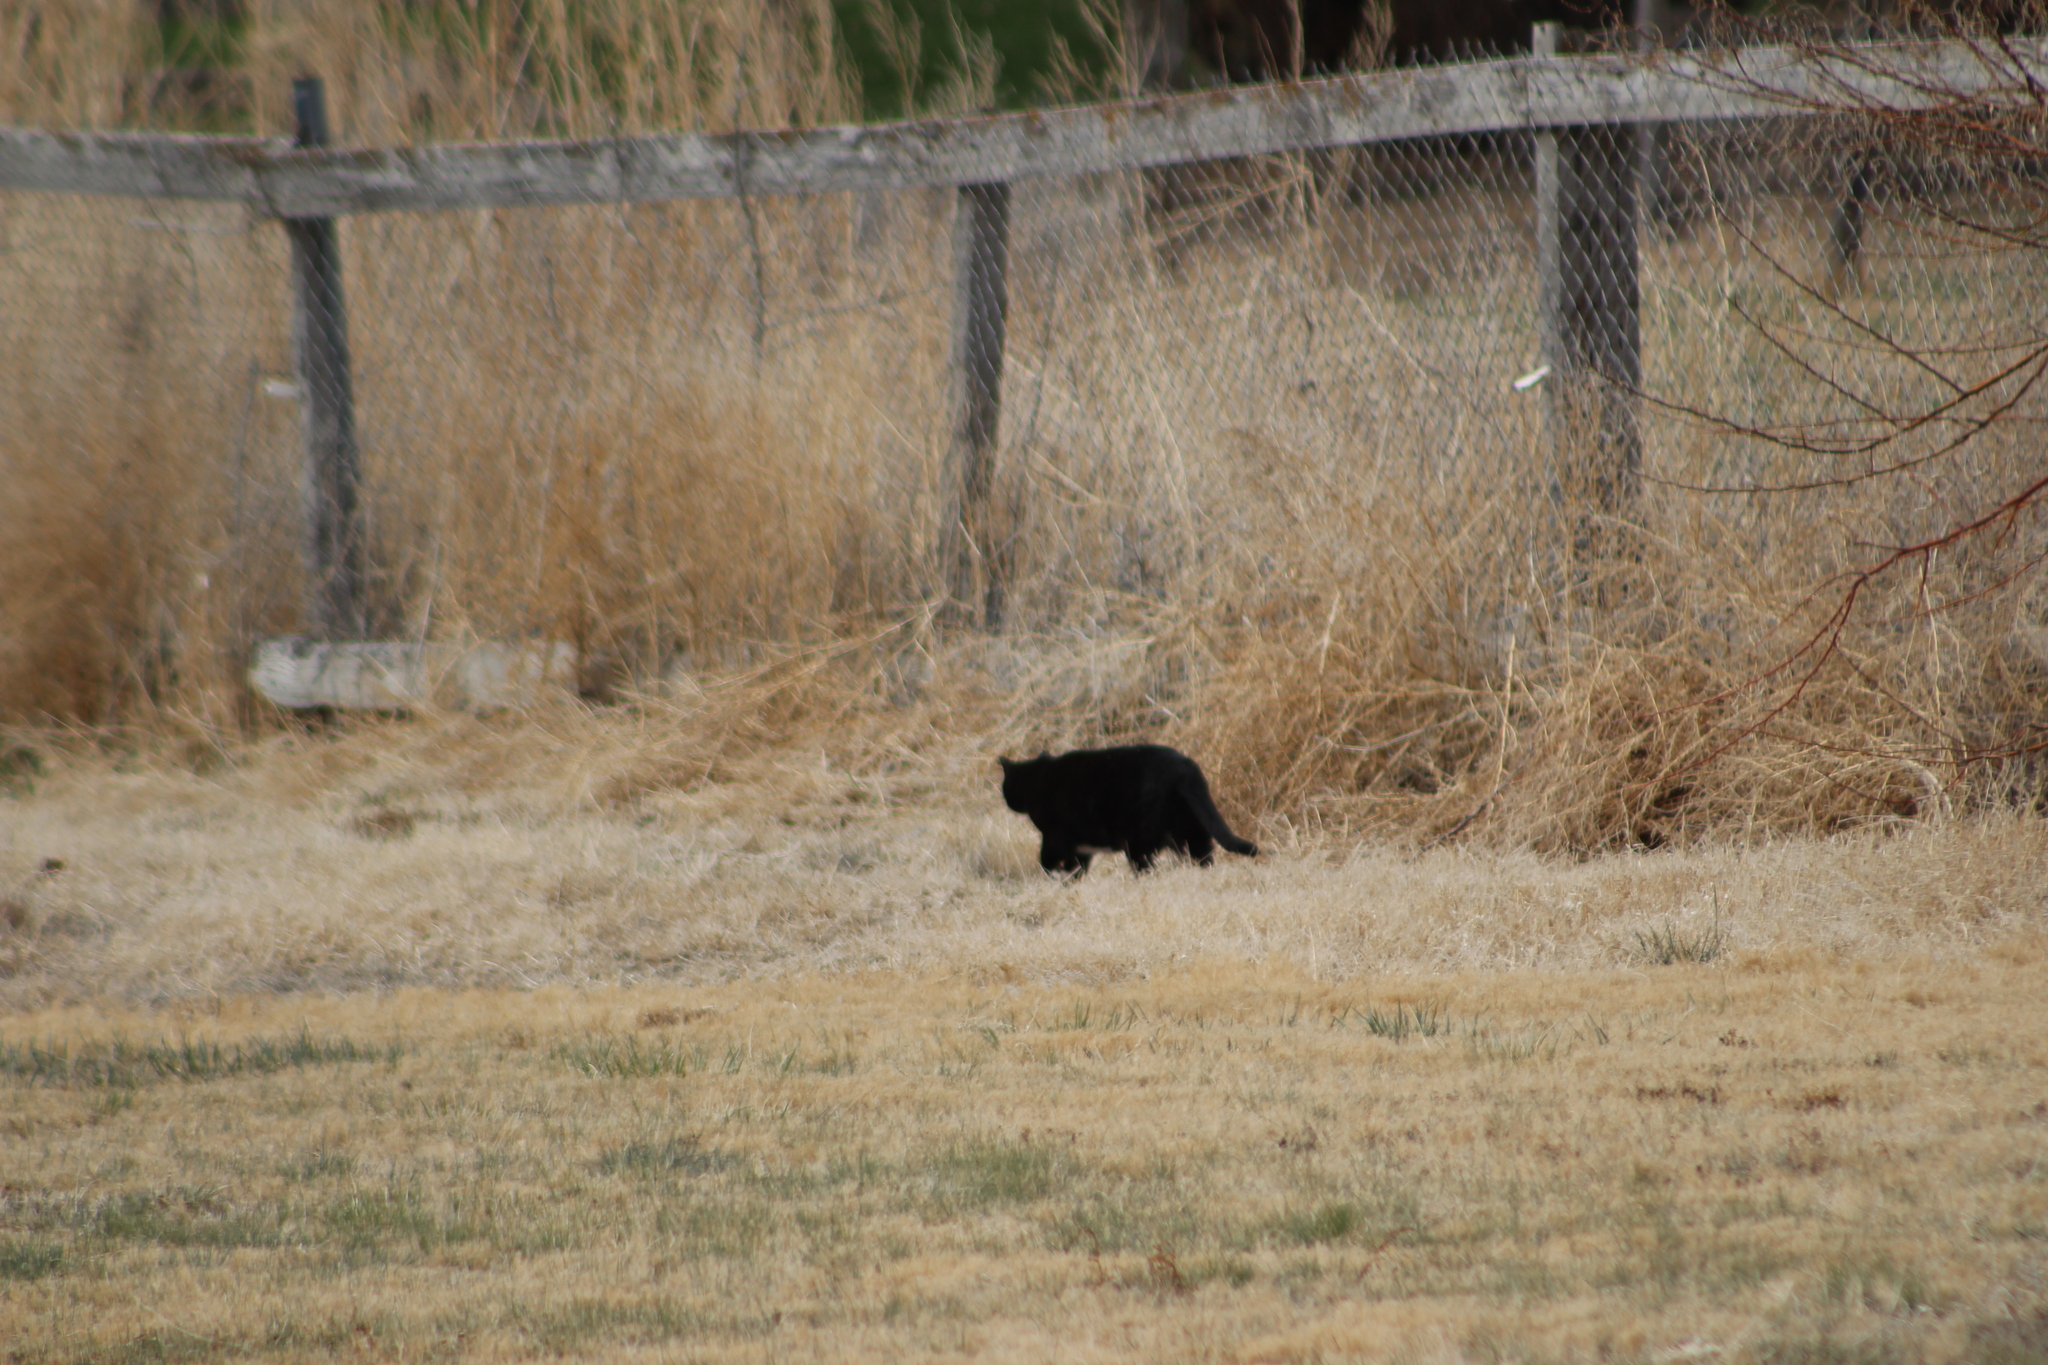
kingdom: Animalia
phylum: Chordata
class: Mammalia
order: Carnivora
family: Felidae
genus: Felis
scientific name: Felis catus
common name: Domestic cat
